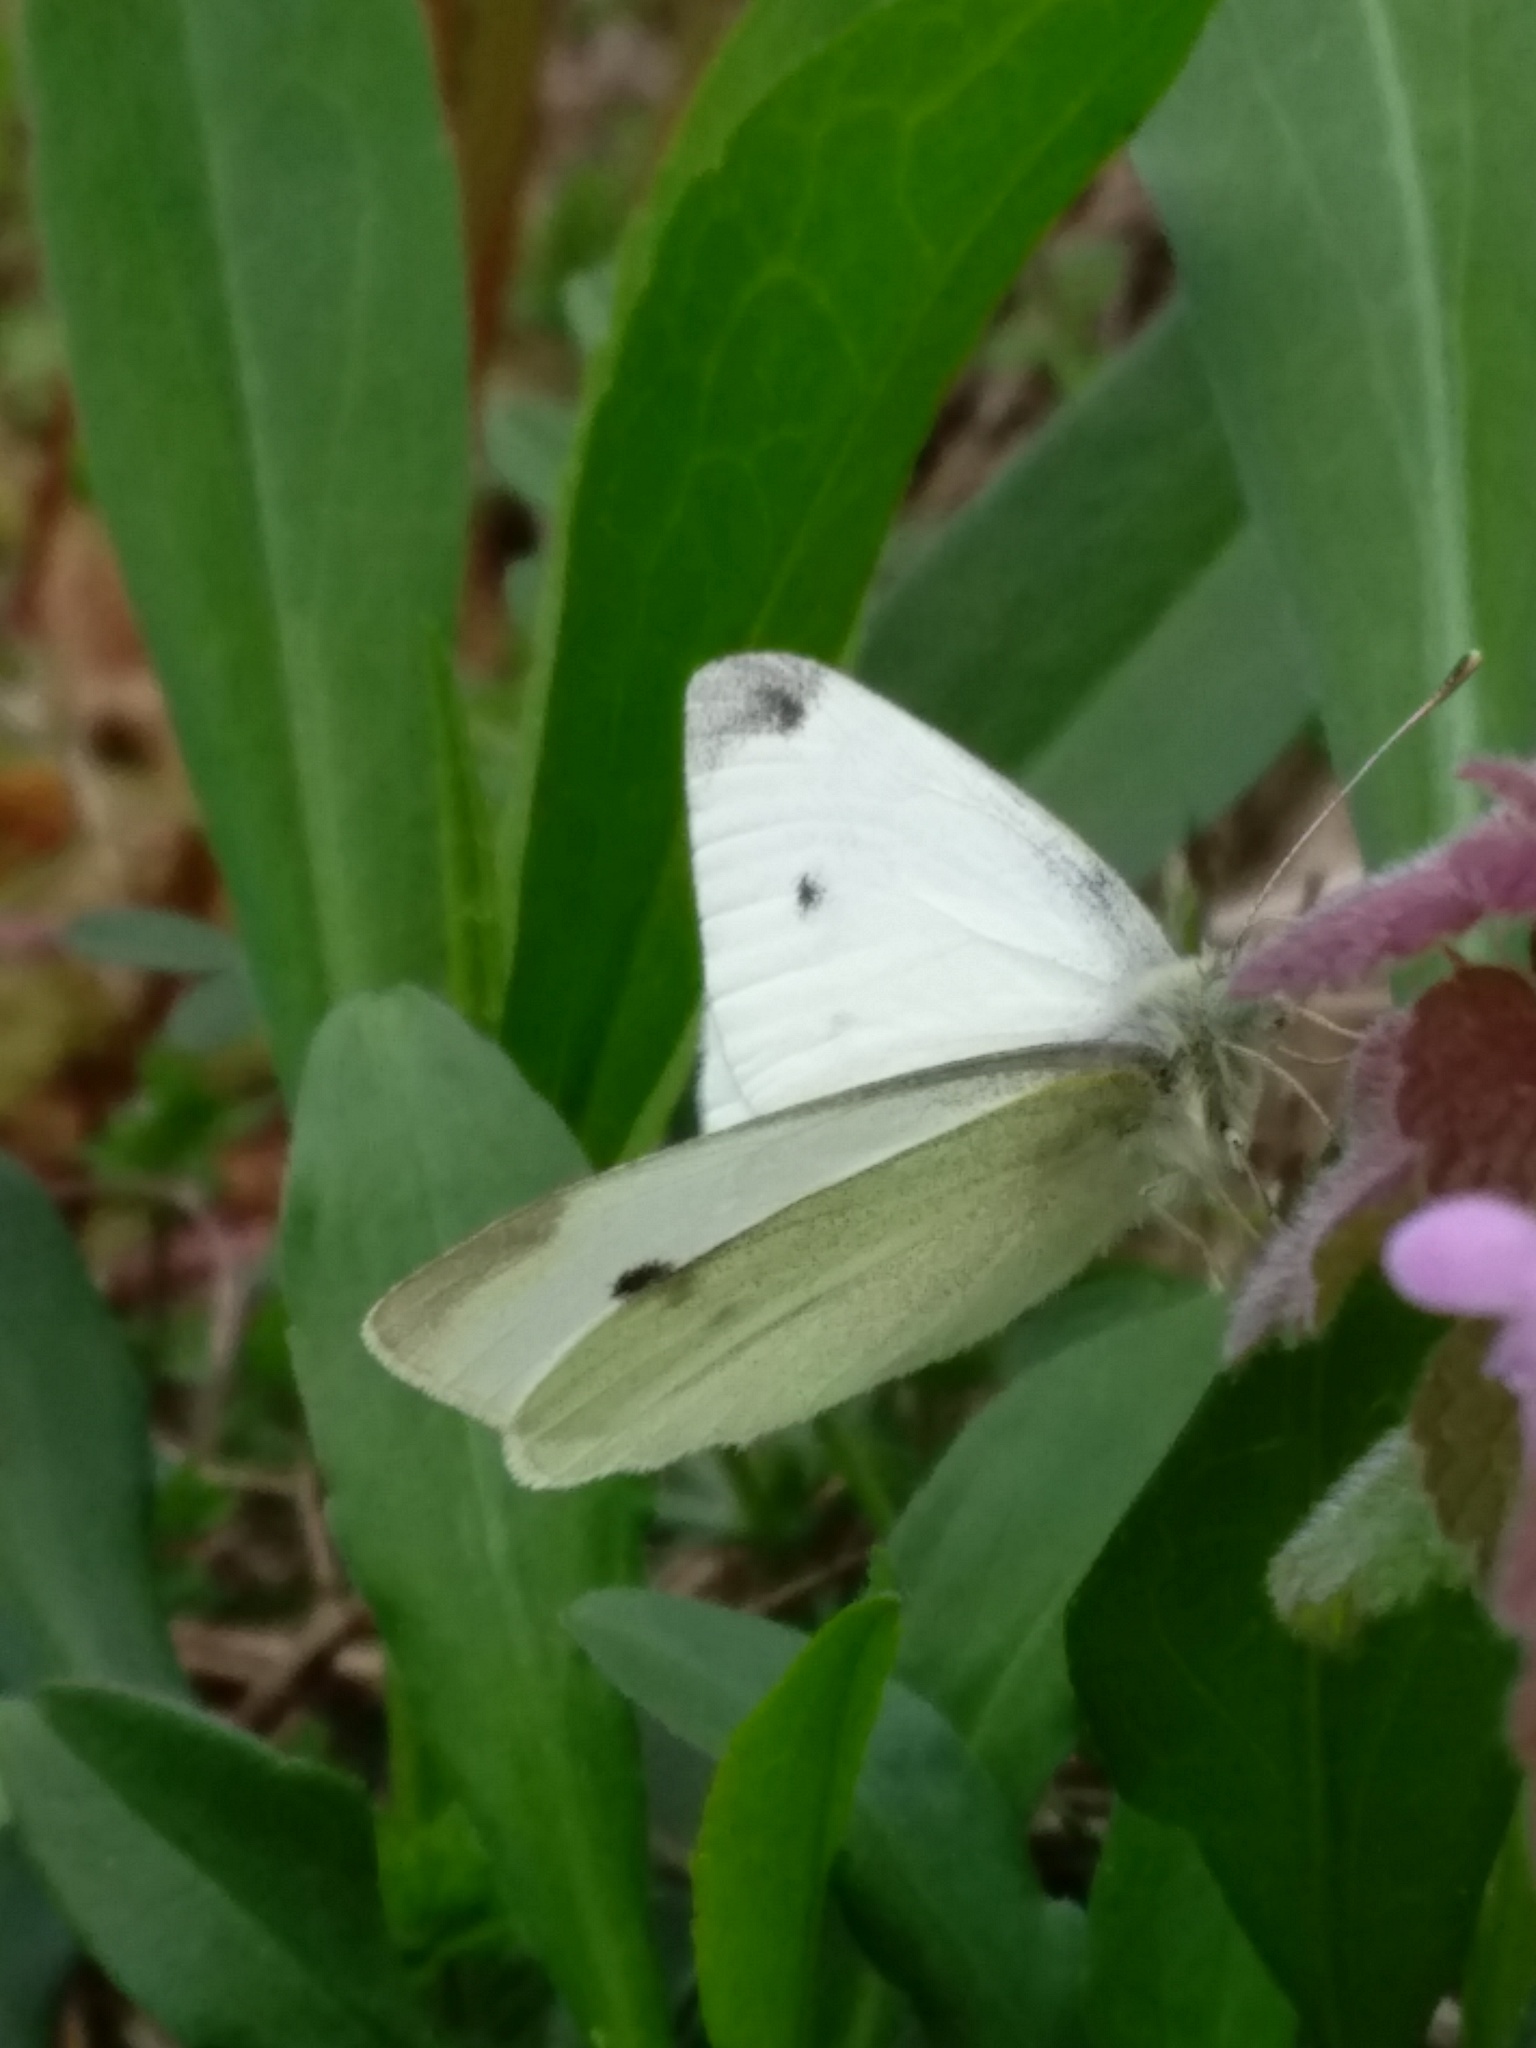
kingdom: Animalia
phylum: Arthropoda
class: Insecta
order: Lepidoptera
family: Pieridae
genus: Pieris
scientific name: Pieris rapae
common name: Small white
